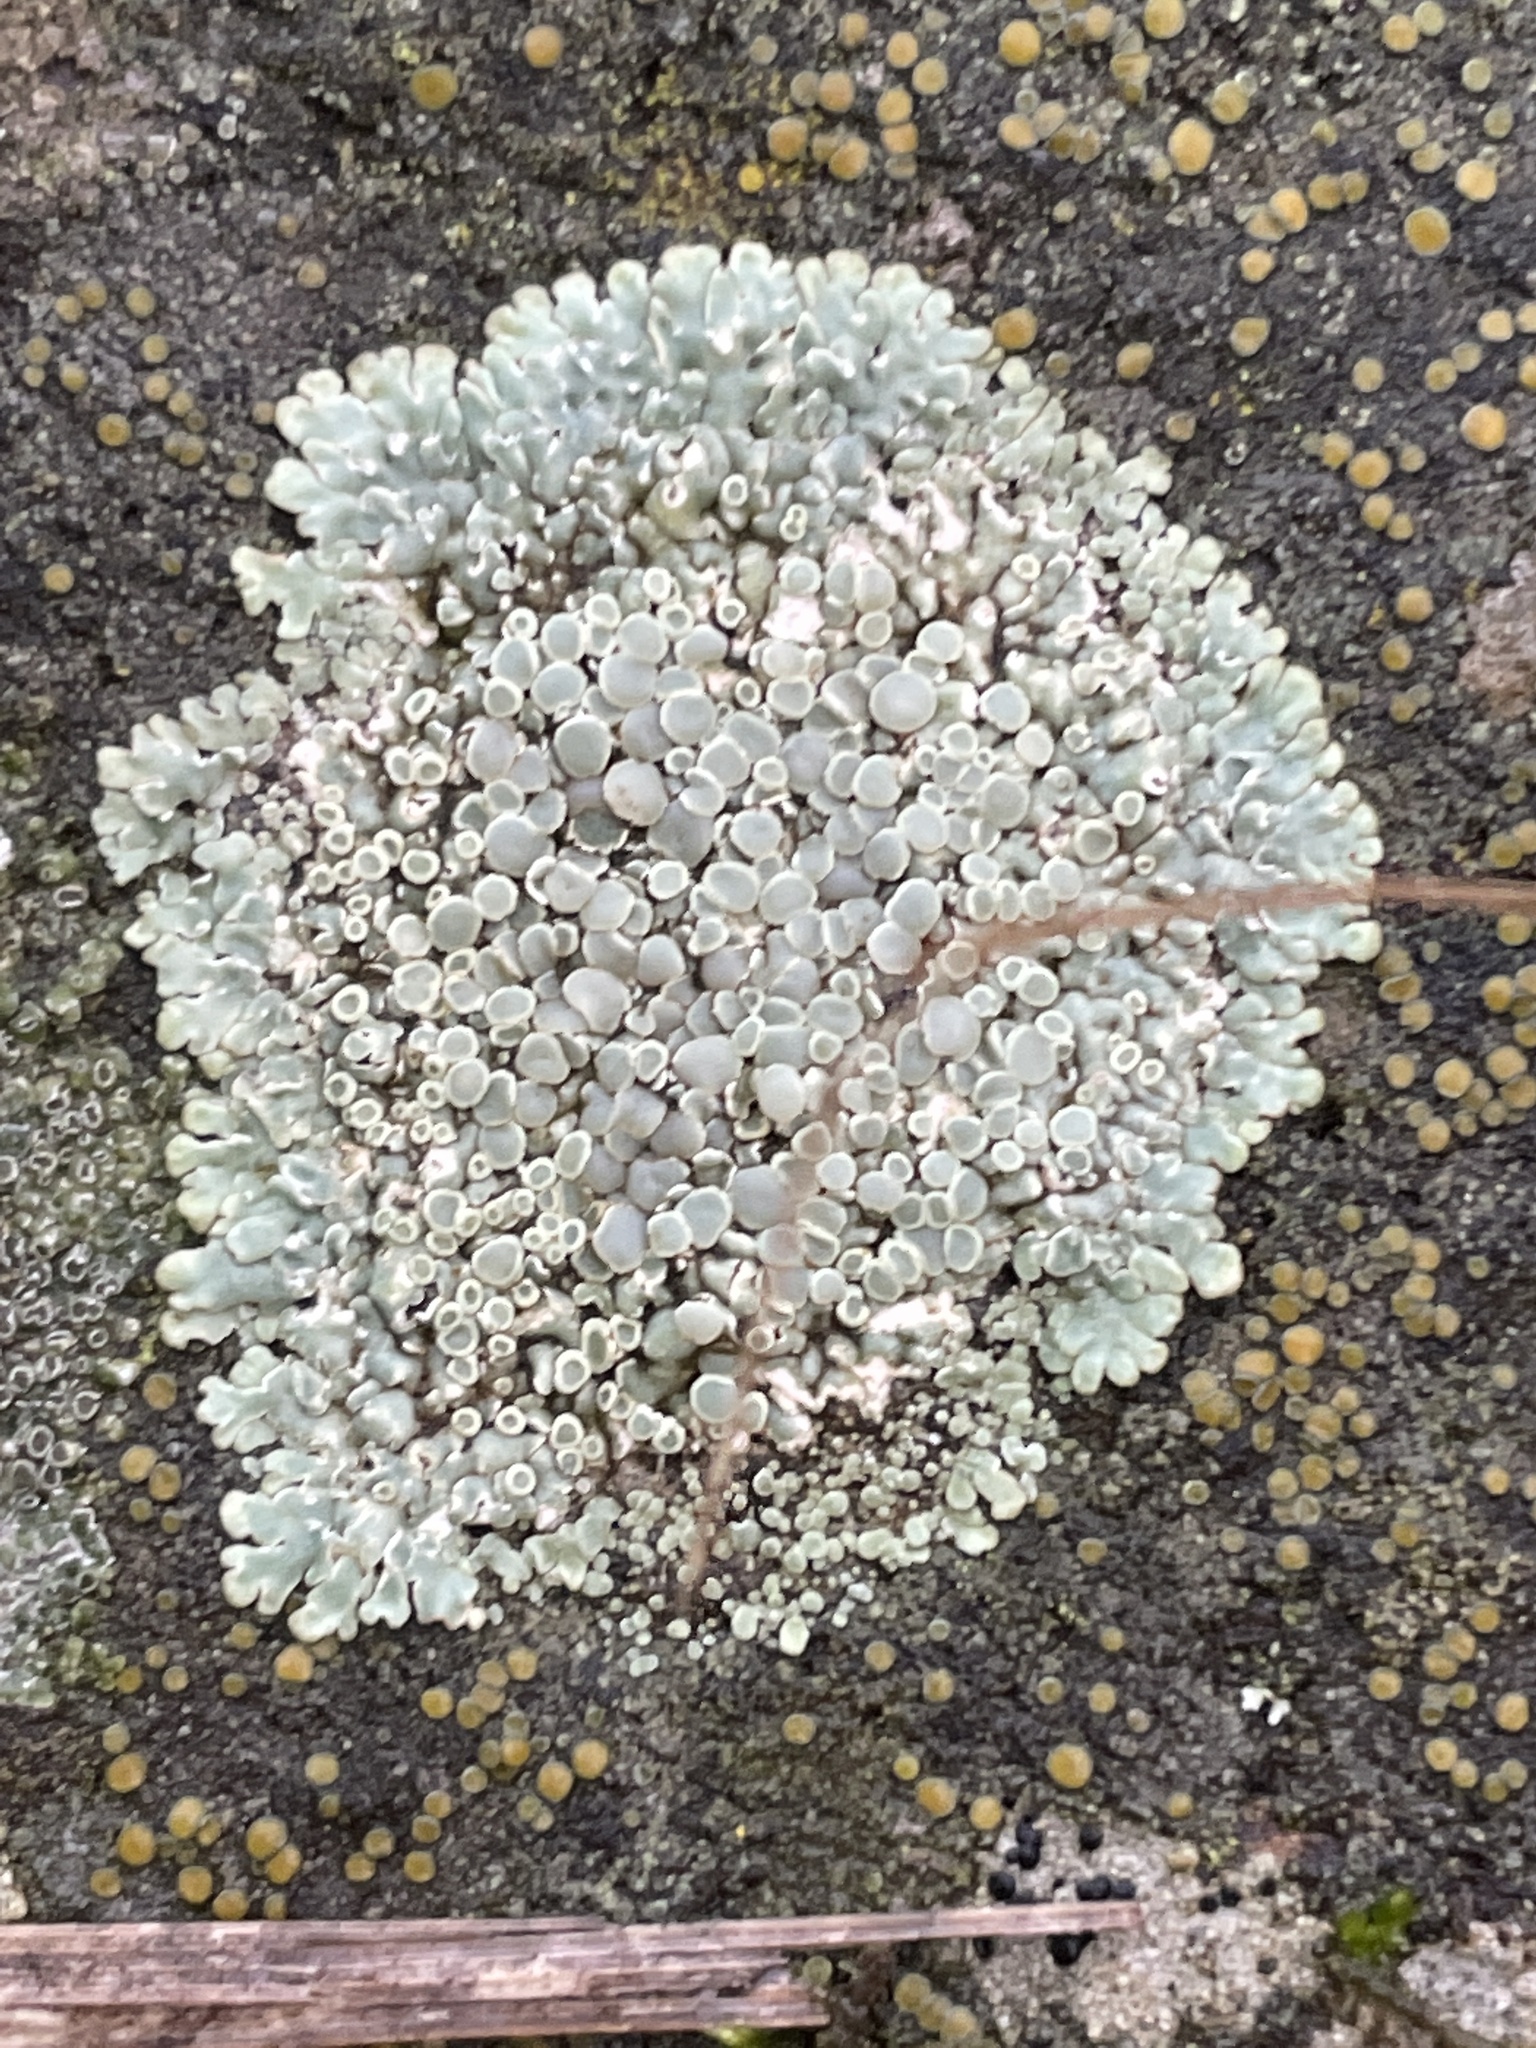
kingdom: Fungi
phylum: Ascomycota
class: Lecanoromycetes
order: Lecanorales
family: Lecanoraceae
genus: Protoparmeliopsis
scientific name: Protoparmeliopsis muralis
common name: Stonewall rim lichen
